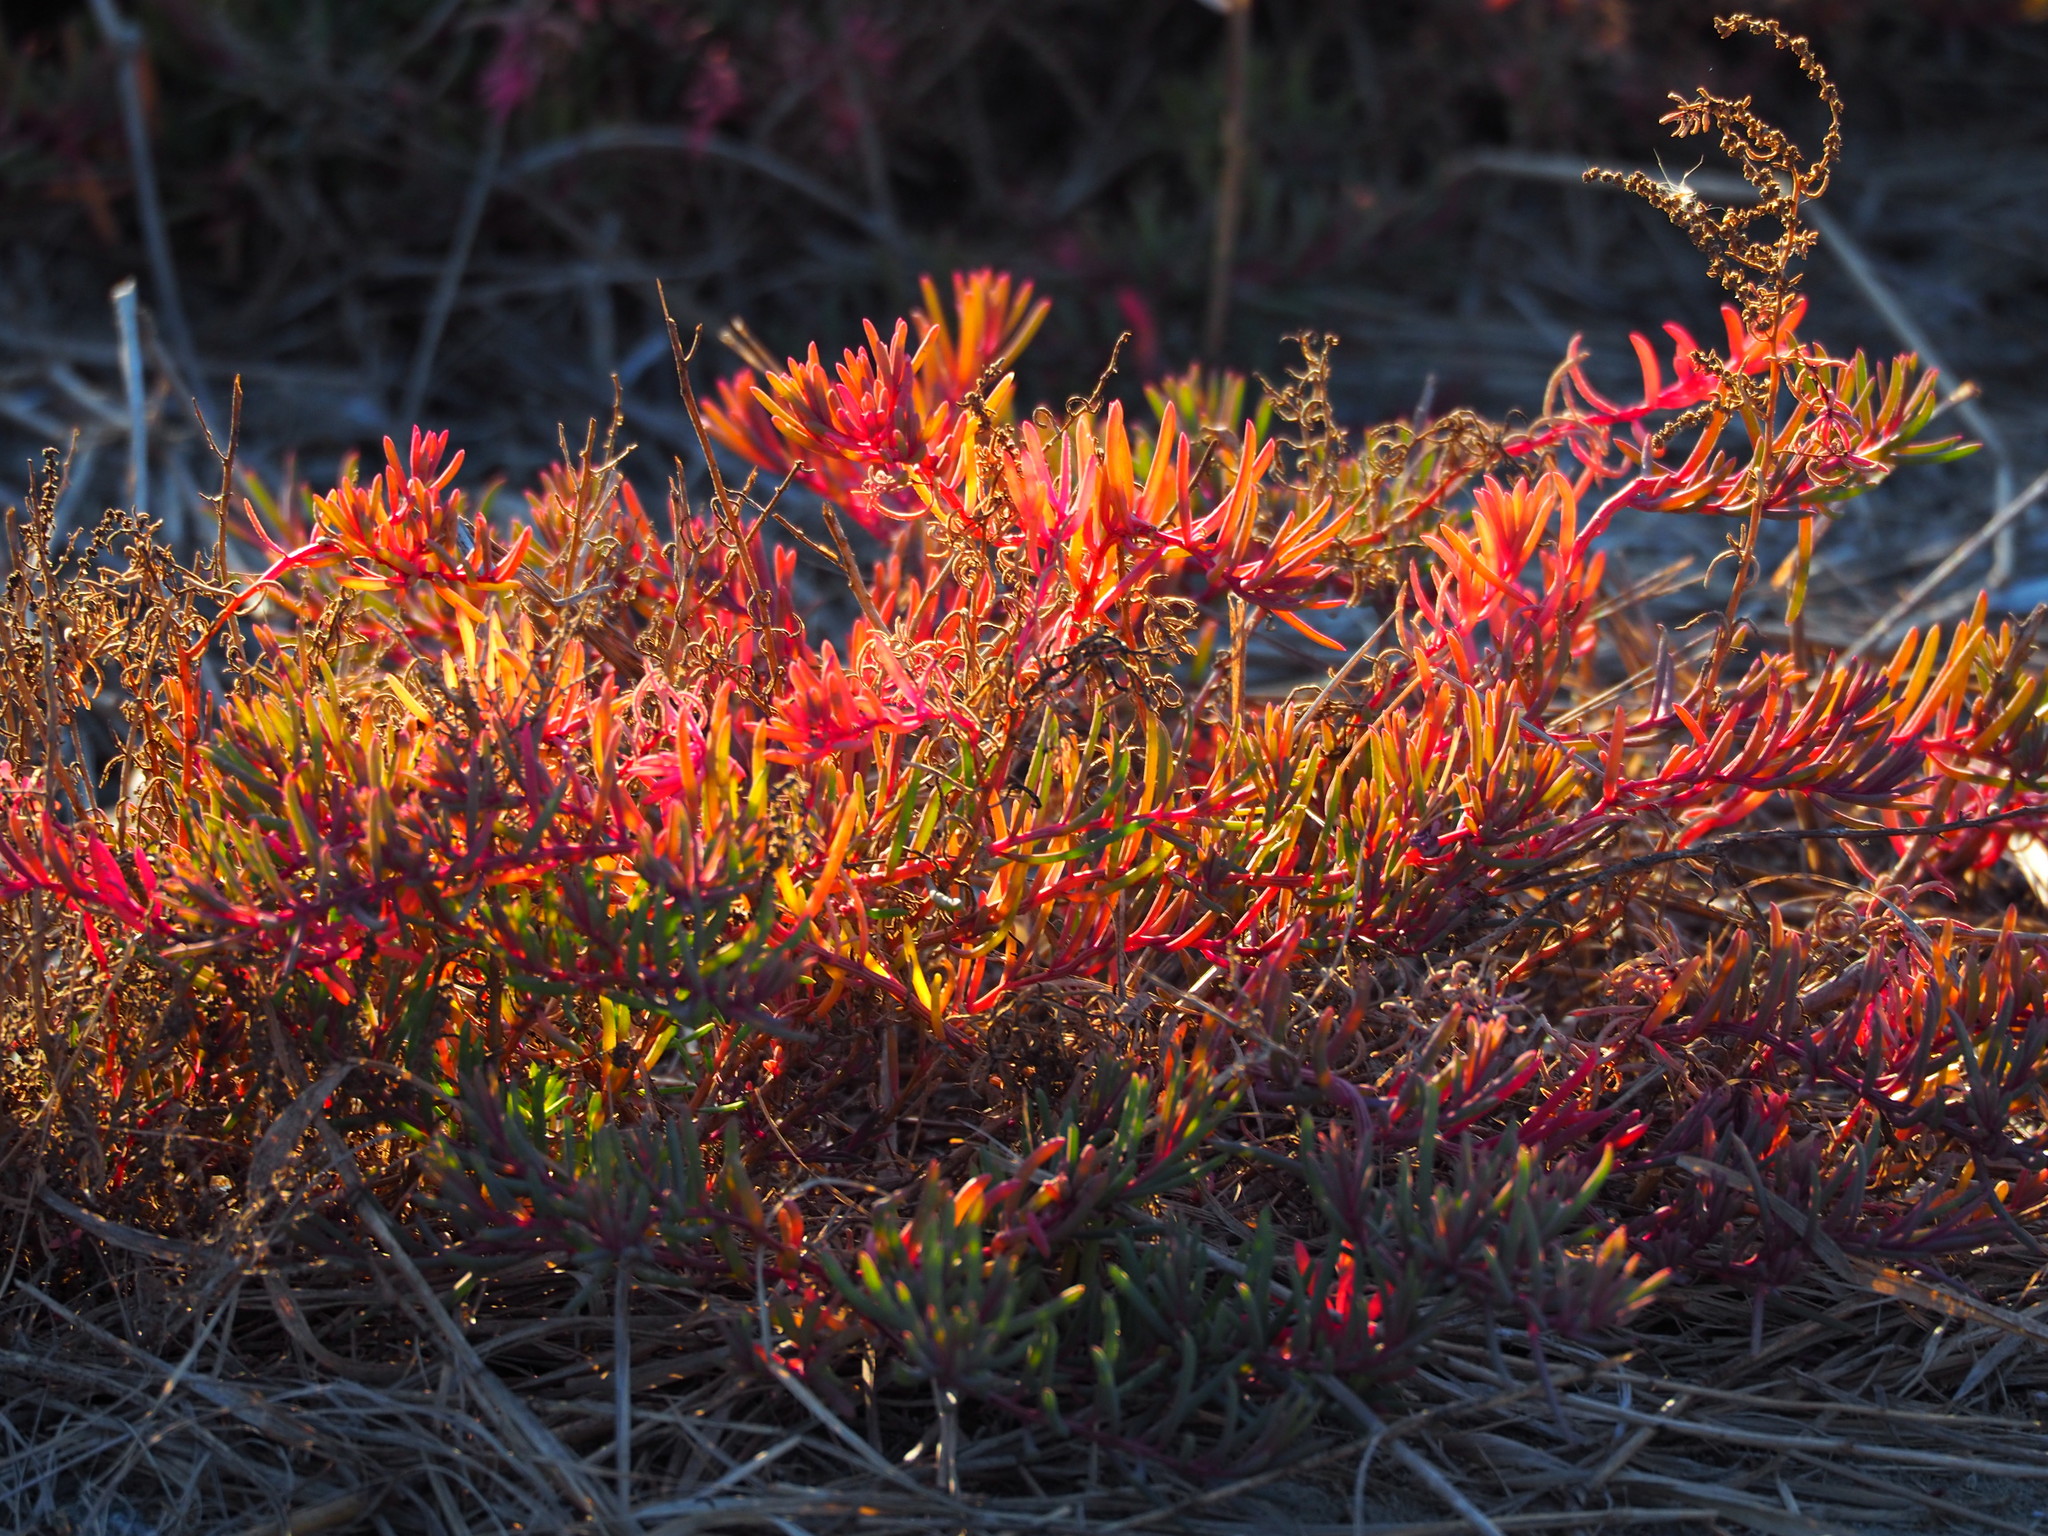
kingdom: Plantae
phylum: Tracheophyta
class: Magnoliopsida
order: Caryophyllales
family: Amaranthaceae
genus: Suaeda
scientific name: Suaeda maritima
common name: Annual sea-blite
